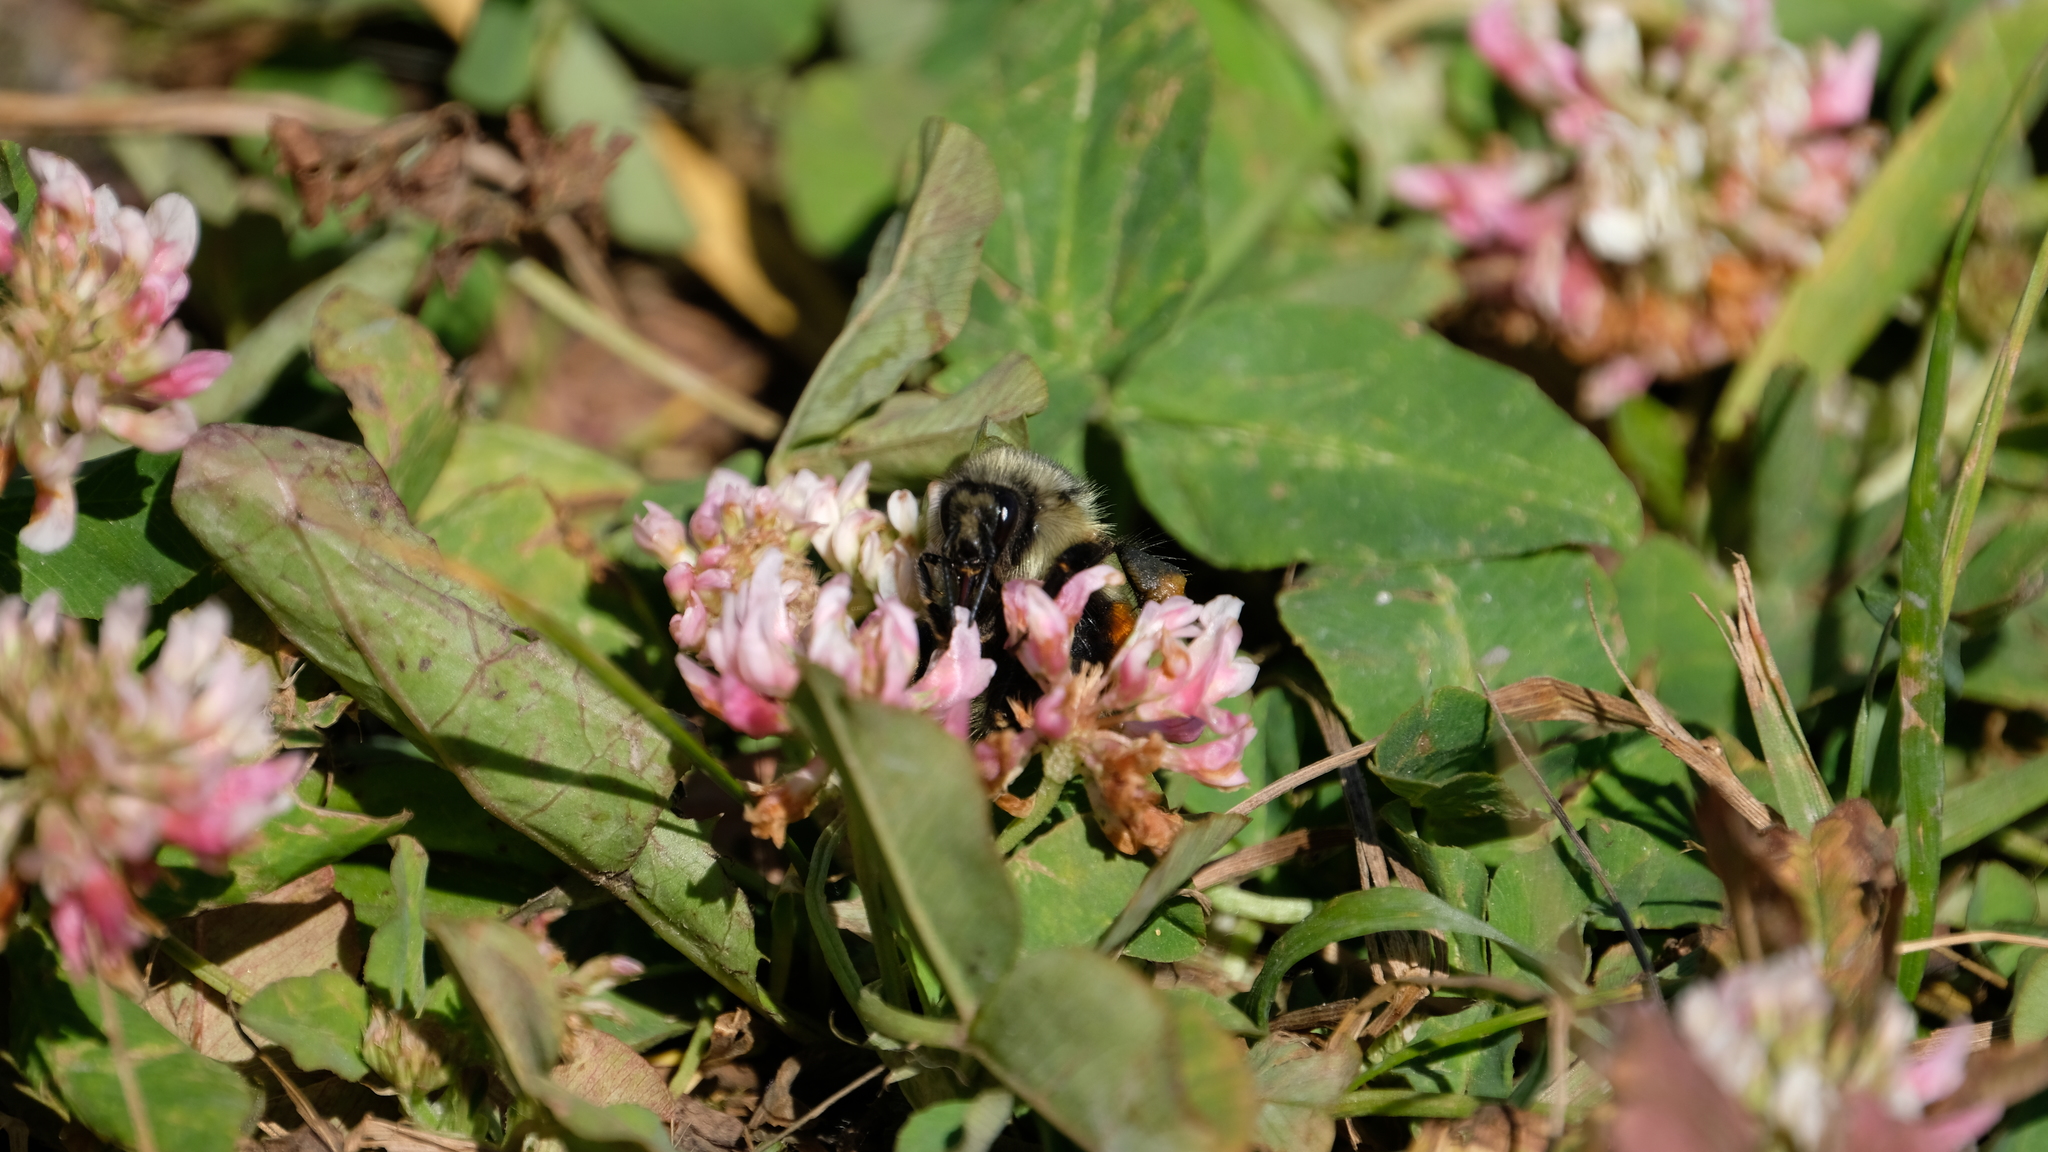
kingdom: Plantae
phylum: Tracheophyta
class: Magnoliopsida
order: Fabales
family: Fabaceae
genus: Trifolium
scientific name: Trifolium hybridum
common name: Alsike clover
